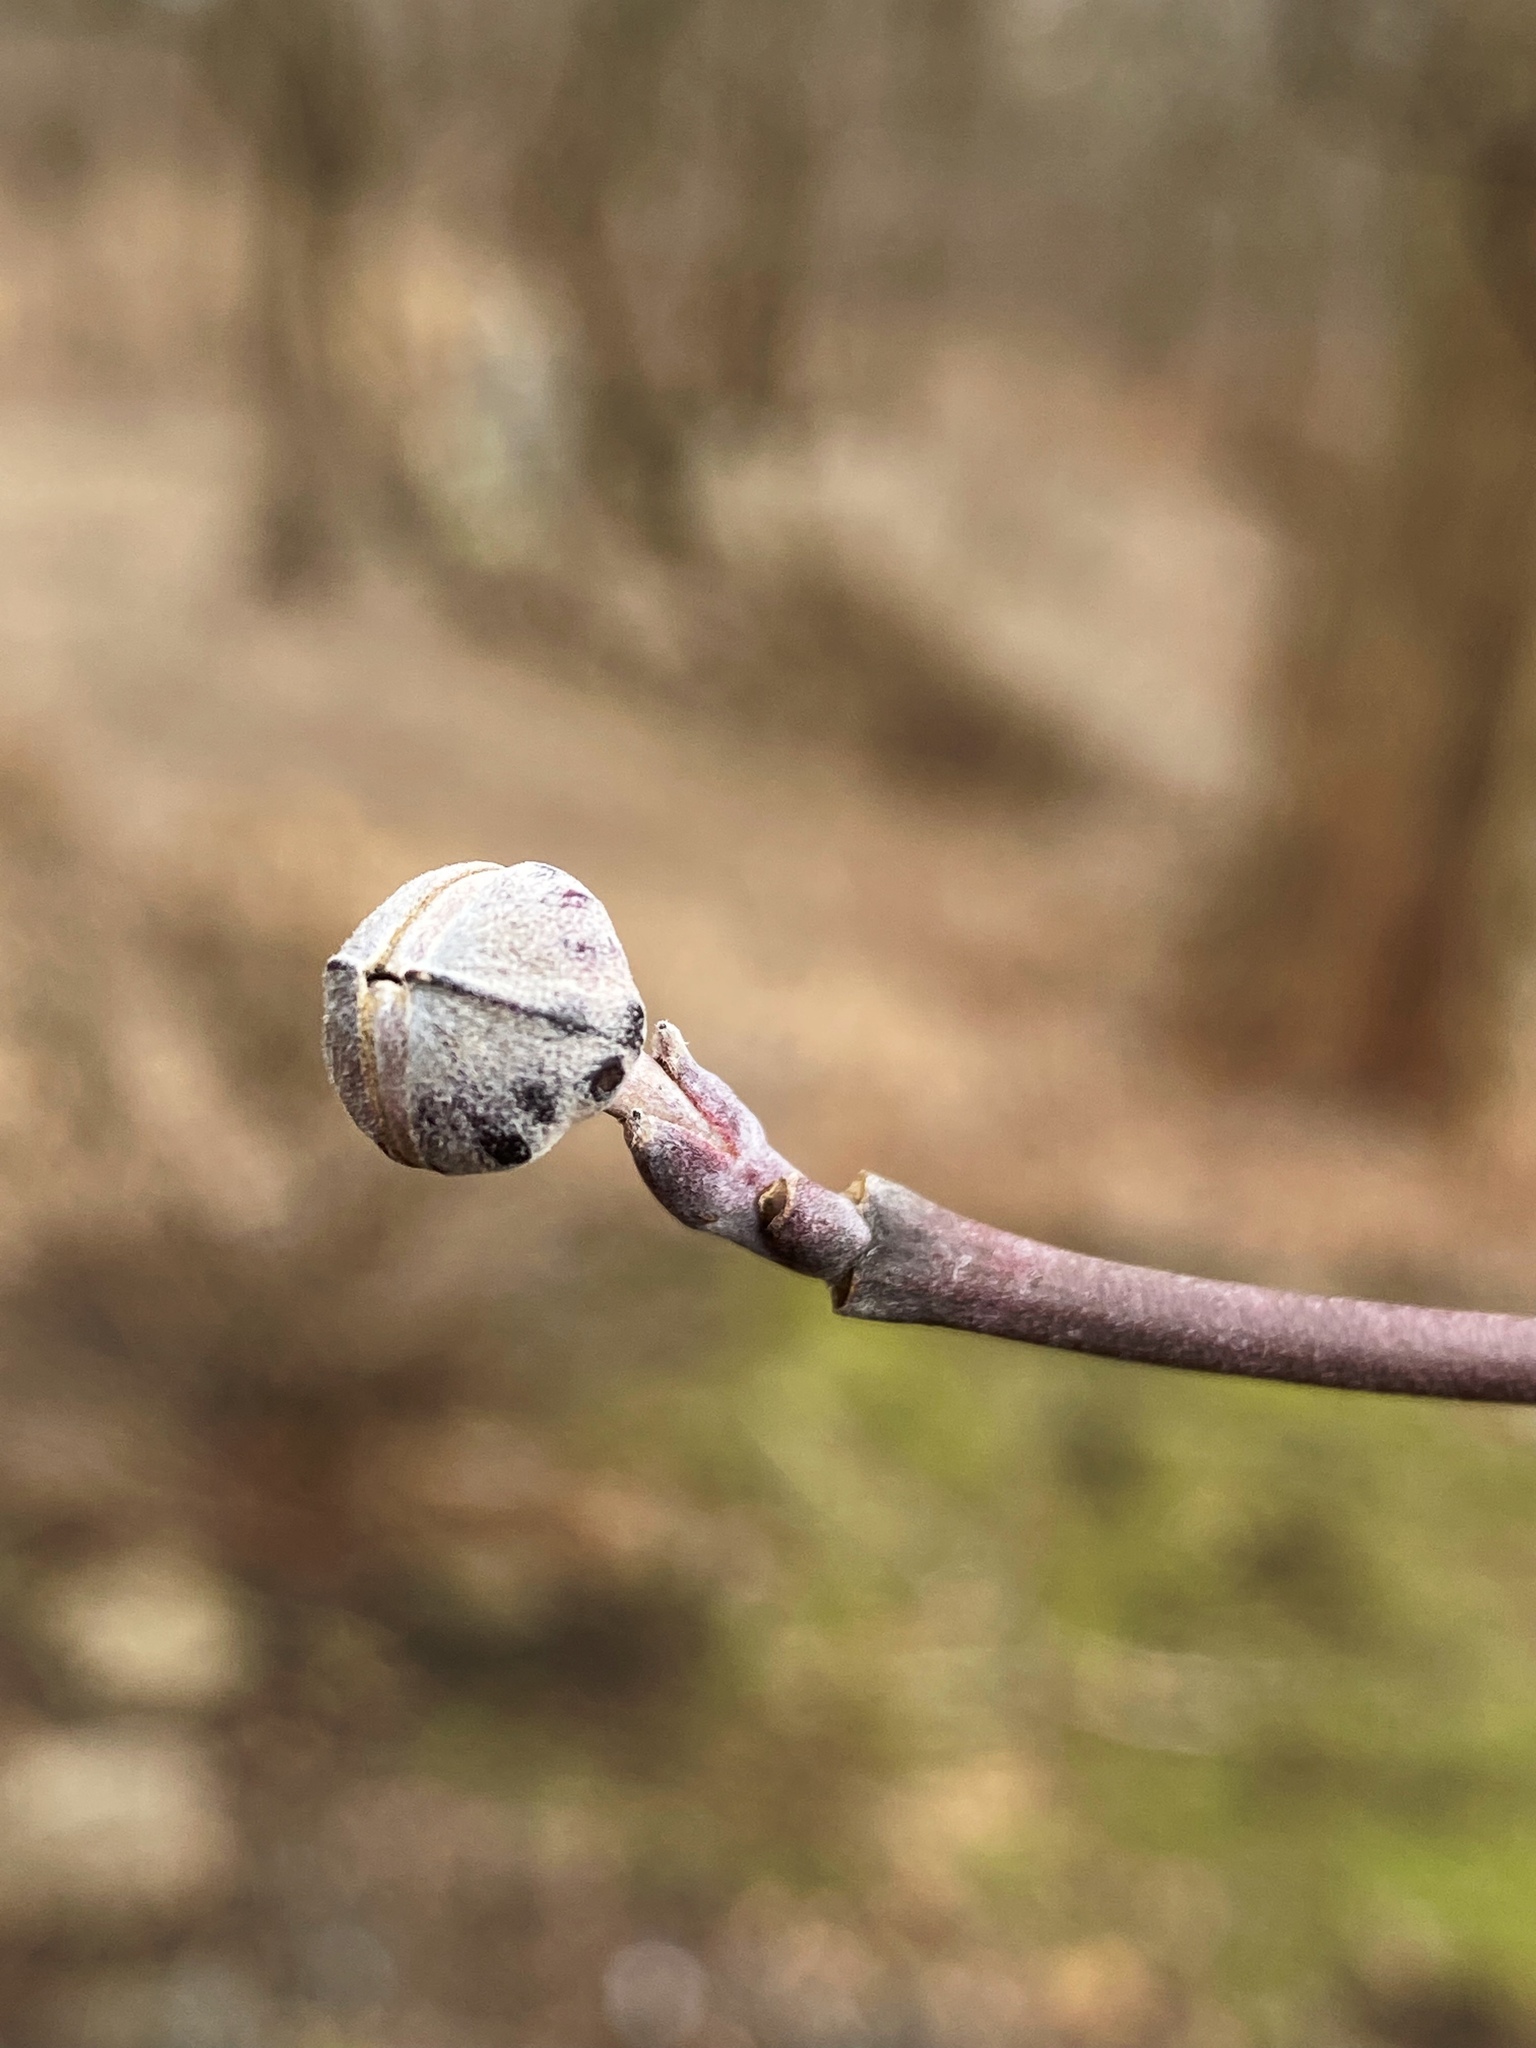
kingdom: Plantae
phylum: Tracheophyta
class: Magnoliopsida
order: Cornales
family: Cornaceae
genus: Cornus
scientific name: Cornus florida
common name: Flowering dogwood
